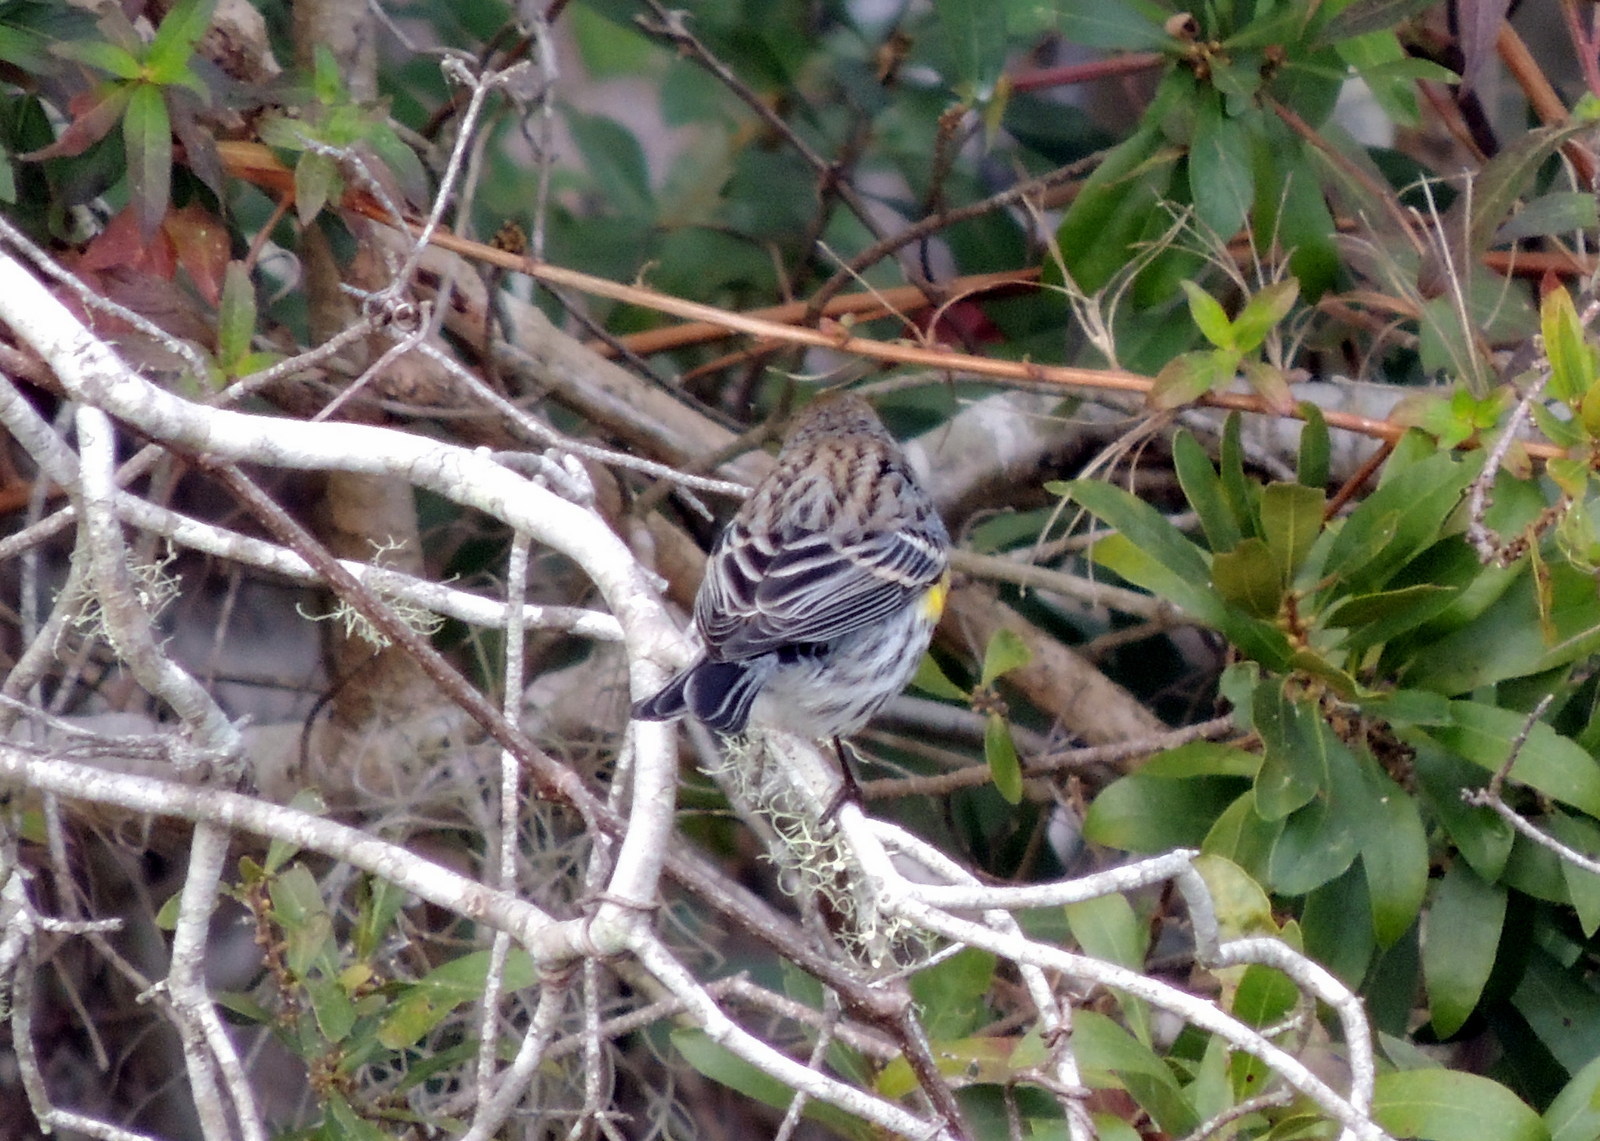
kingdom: Animalia
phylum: Chordata
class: Aves
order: Passeriformes
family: Parulidae
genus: Setophaga
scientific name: Setophaga coronata
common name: Myrtle warbler
